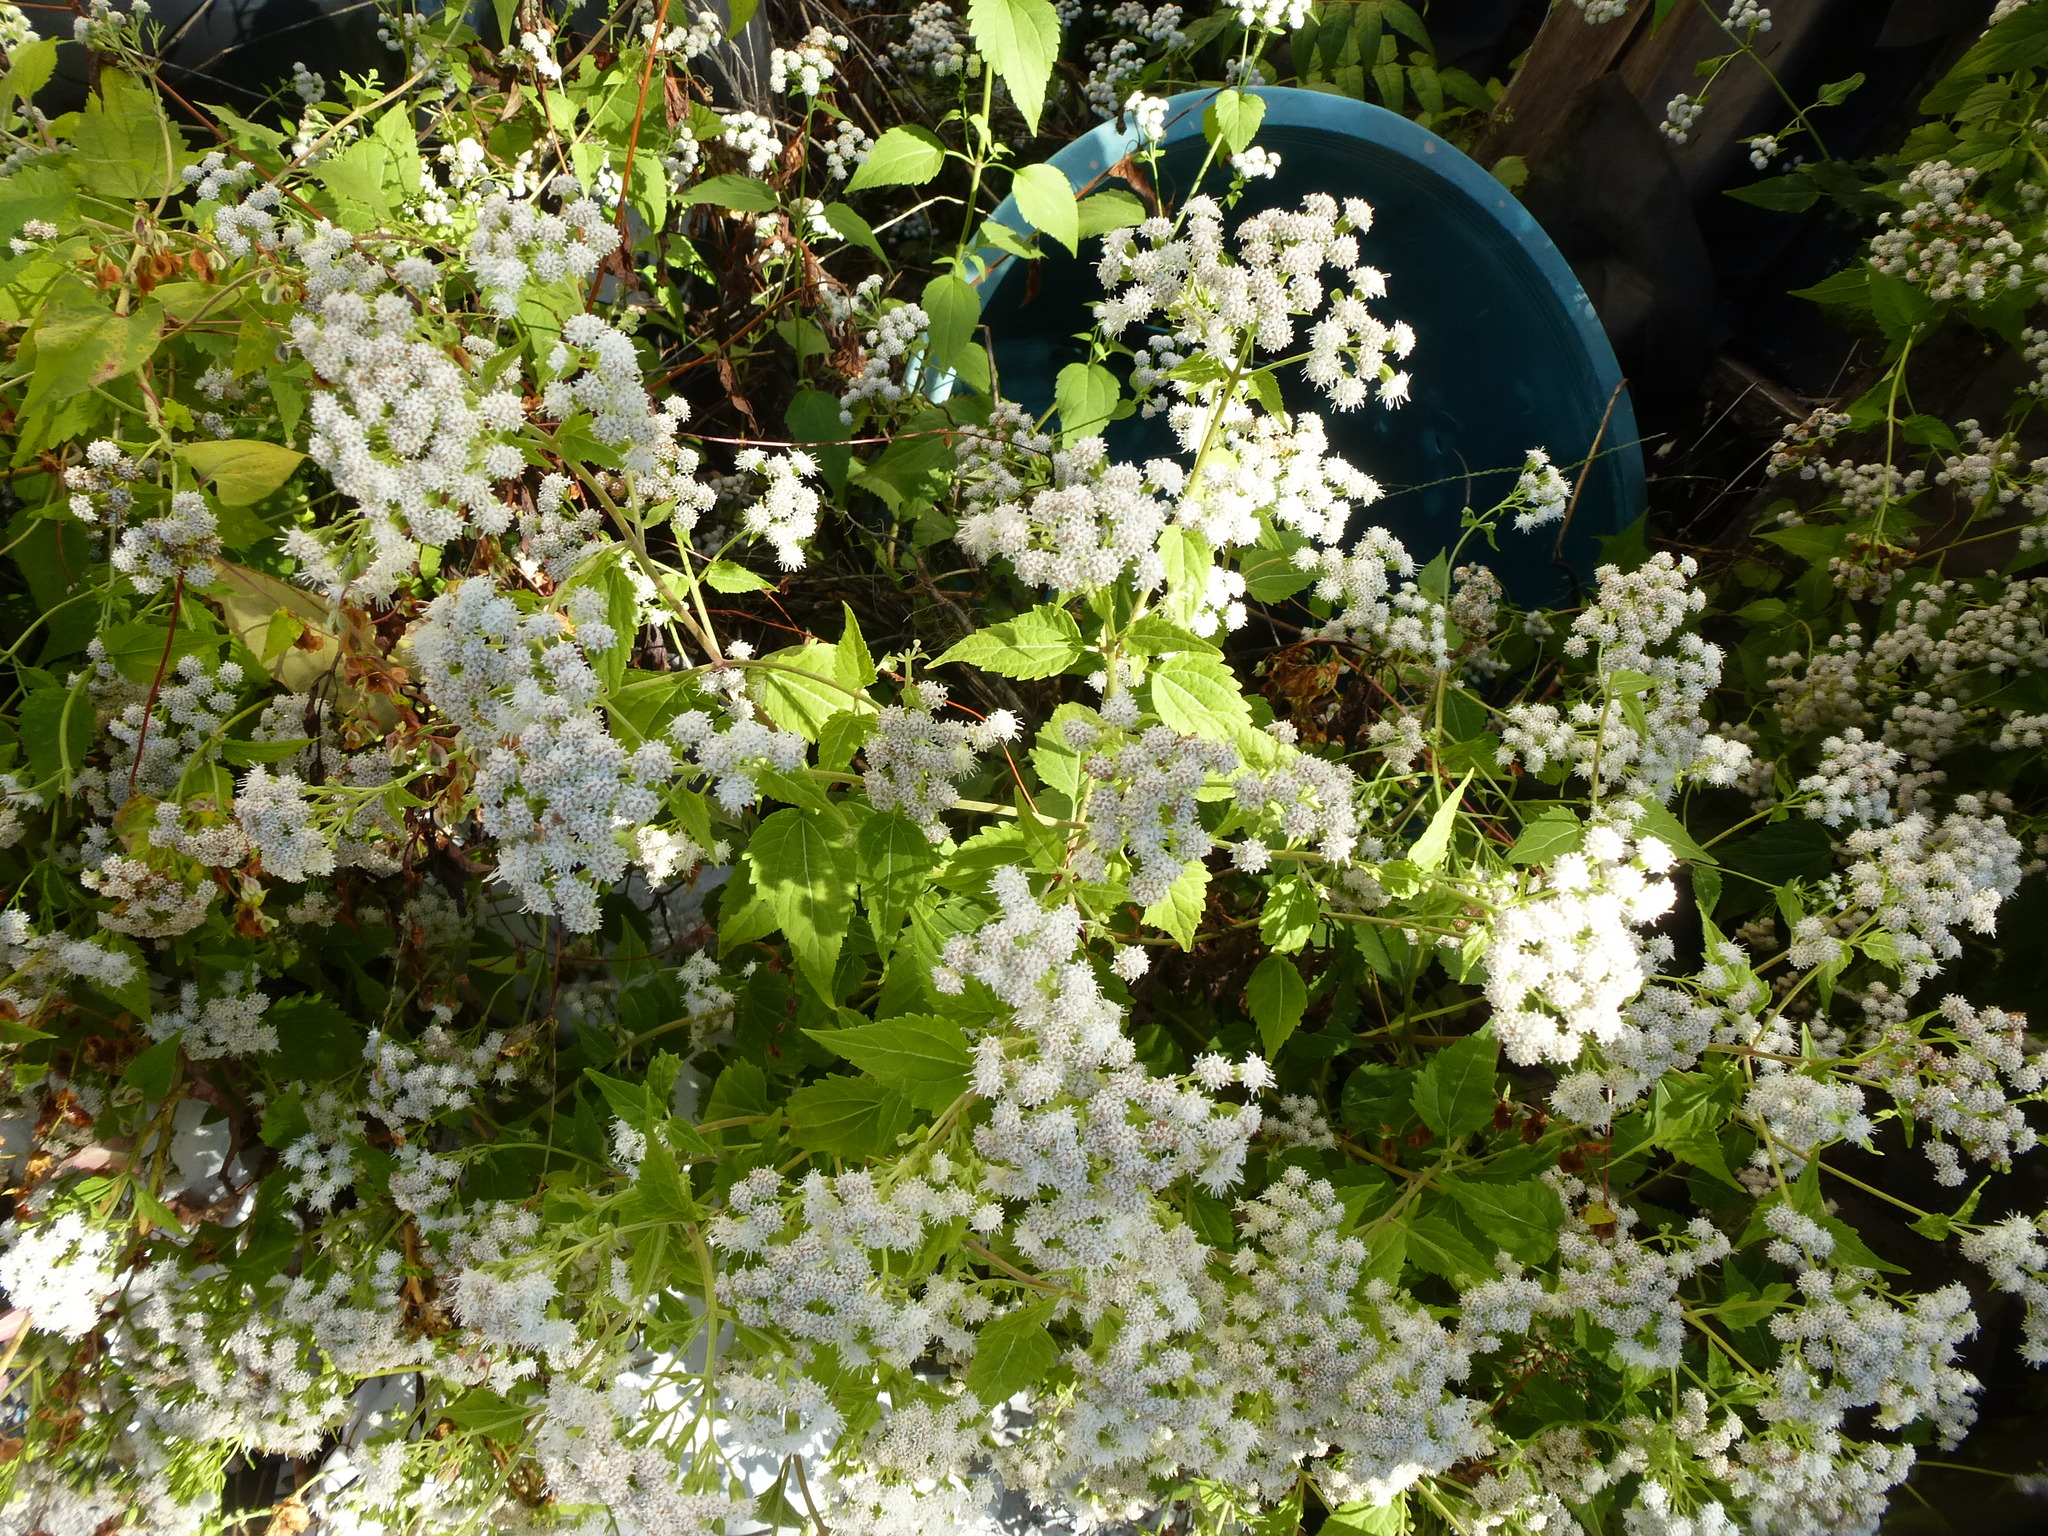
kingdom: Plantae
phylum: Tracheophyta
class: Magnoliopsida
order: Asterales
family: Asteraceae
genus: Ageratina
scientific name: Ageratina altissima
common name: White snakeroot
